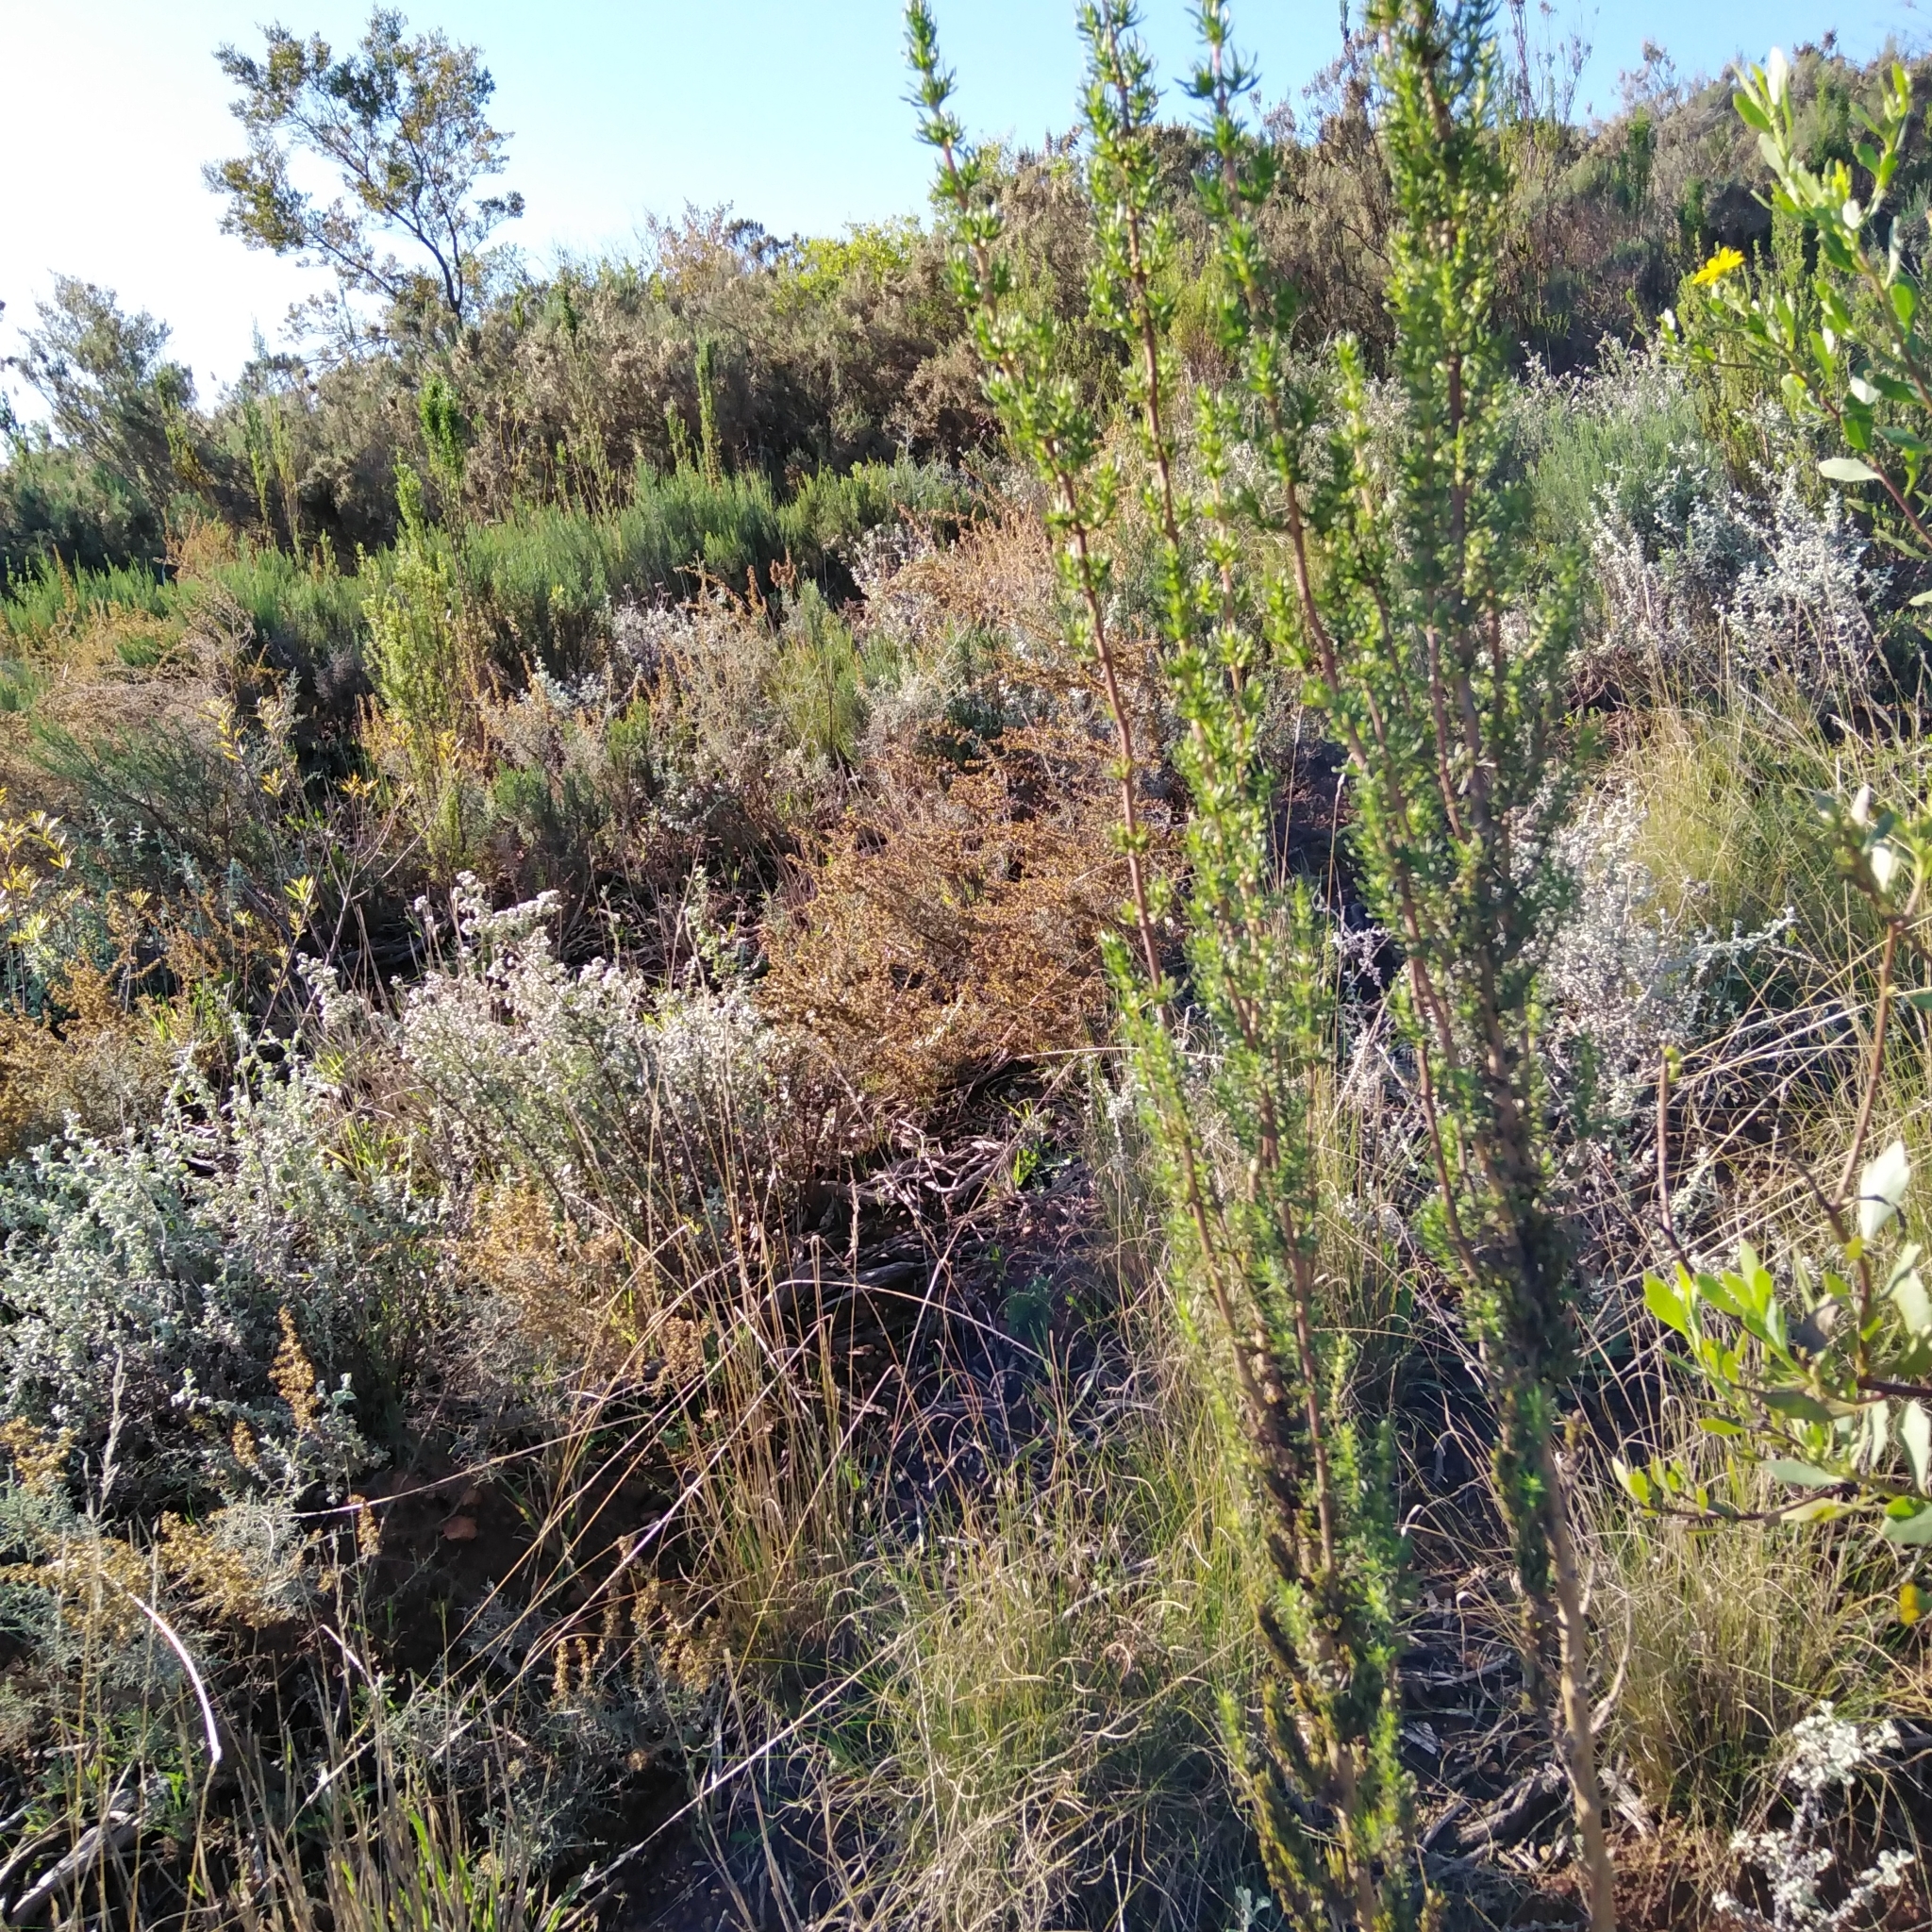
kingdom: Plantae
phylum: Tracheophyta
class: Magnoliopsida
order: Gentianales
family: Rubiaceae
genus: Anthospermum
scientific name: Anthospermum aethiopicum
